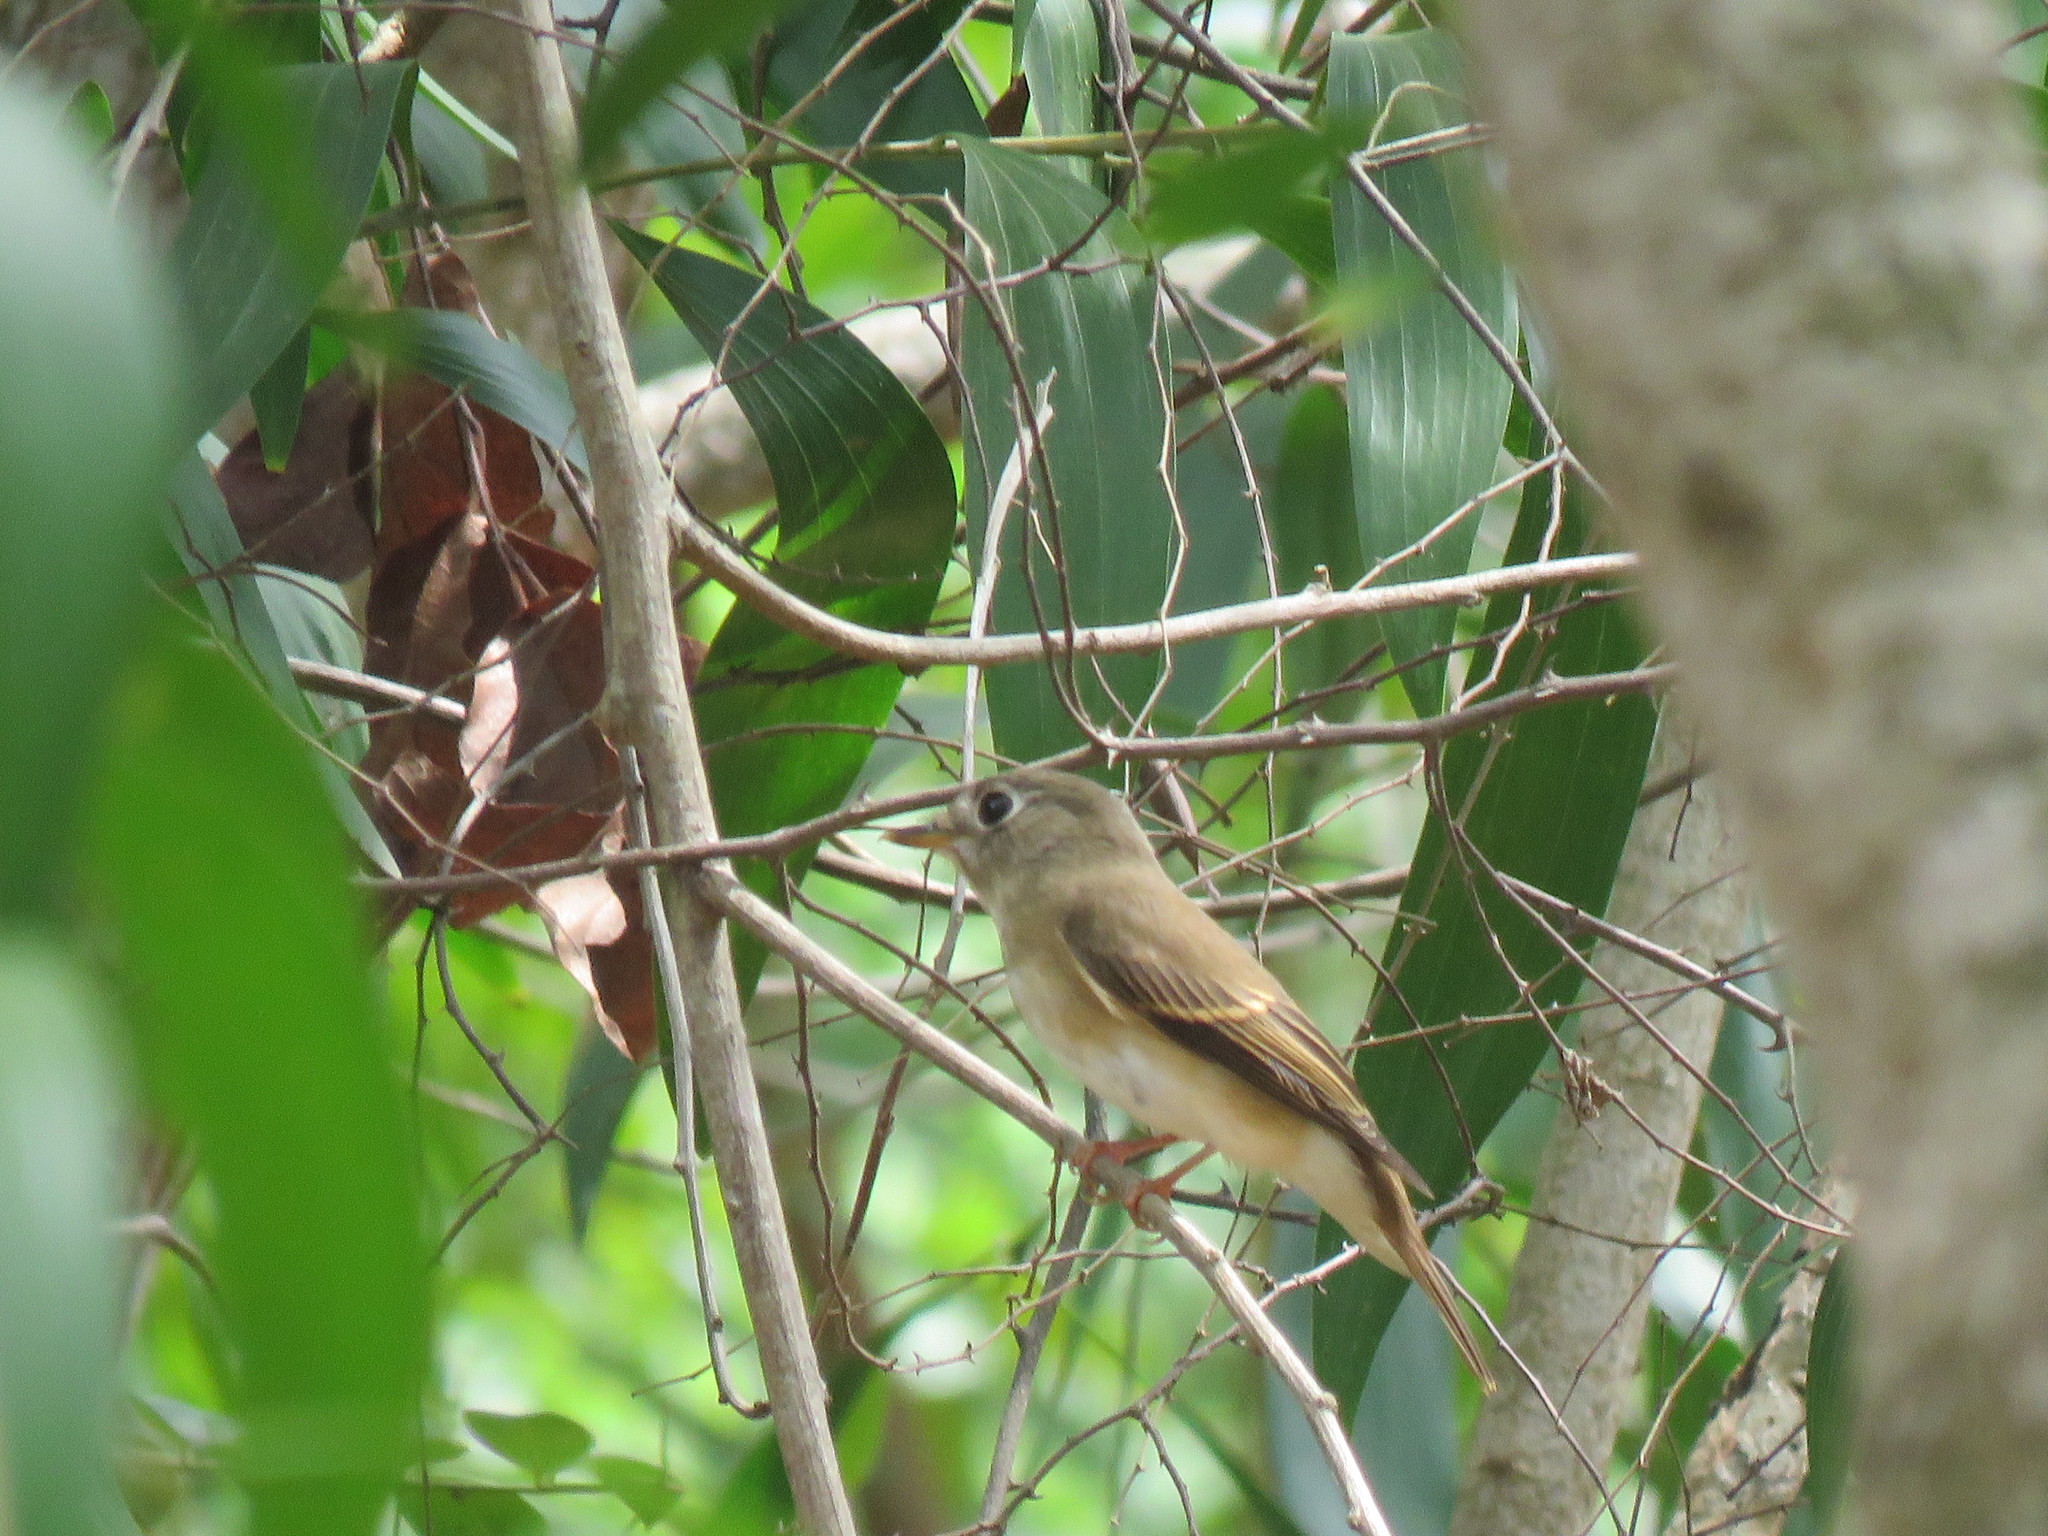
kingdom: Animalia
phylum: Chordata
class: Aves
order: Passeriformes
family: Muscicapidae
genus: Muscicapa
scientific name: Muscicapa muttui
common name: Brown-breasted flycatcher
